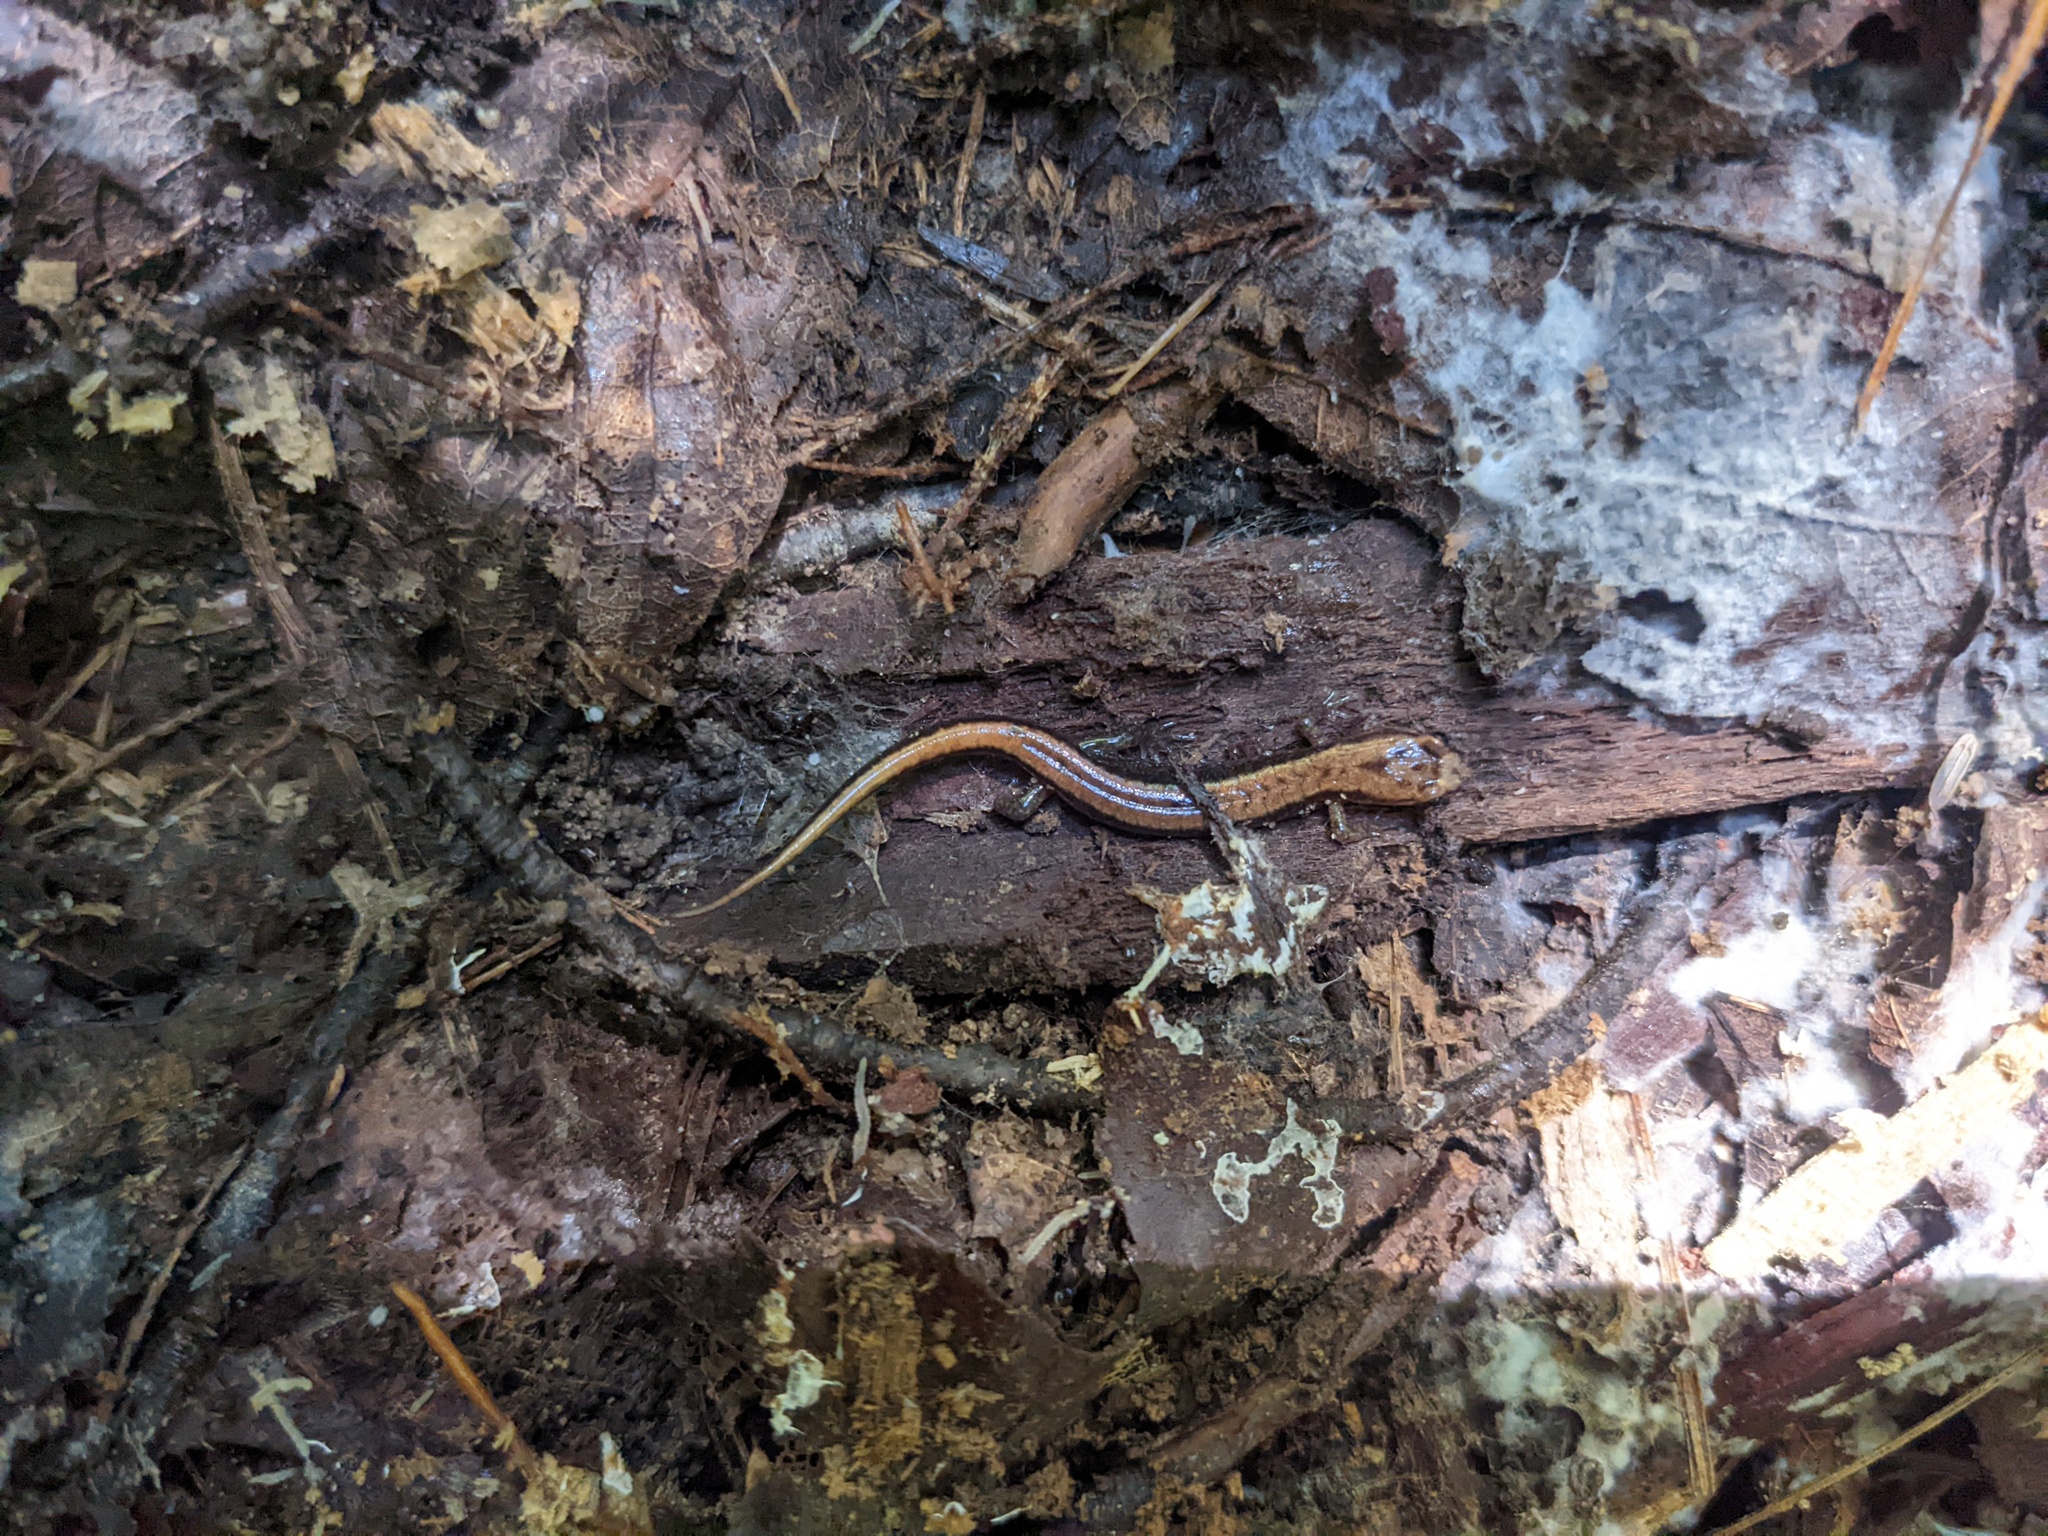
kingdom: Animalia
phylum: Chordata
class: Amphibia
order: Caudata
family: Plethodontidae
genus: Desmognathus
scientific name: Desmognathus ochrophaeus
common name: Allegheny mountain dusky salamander
